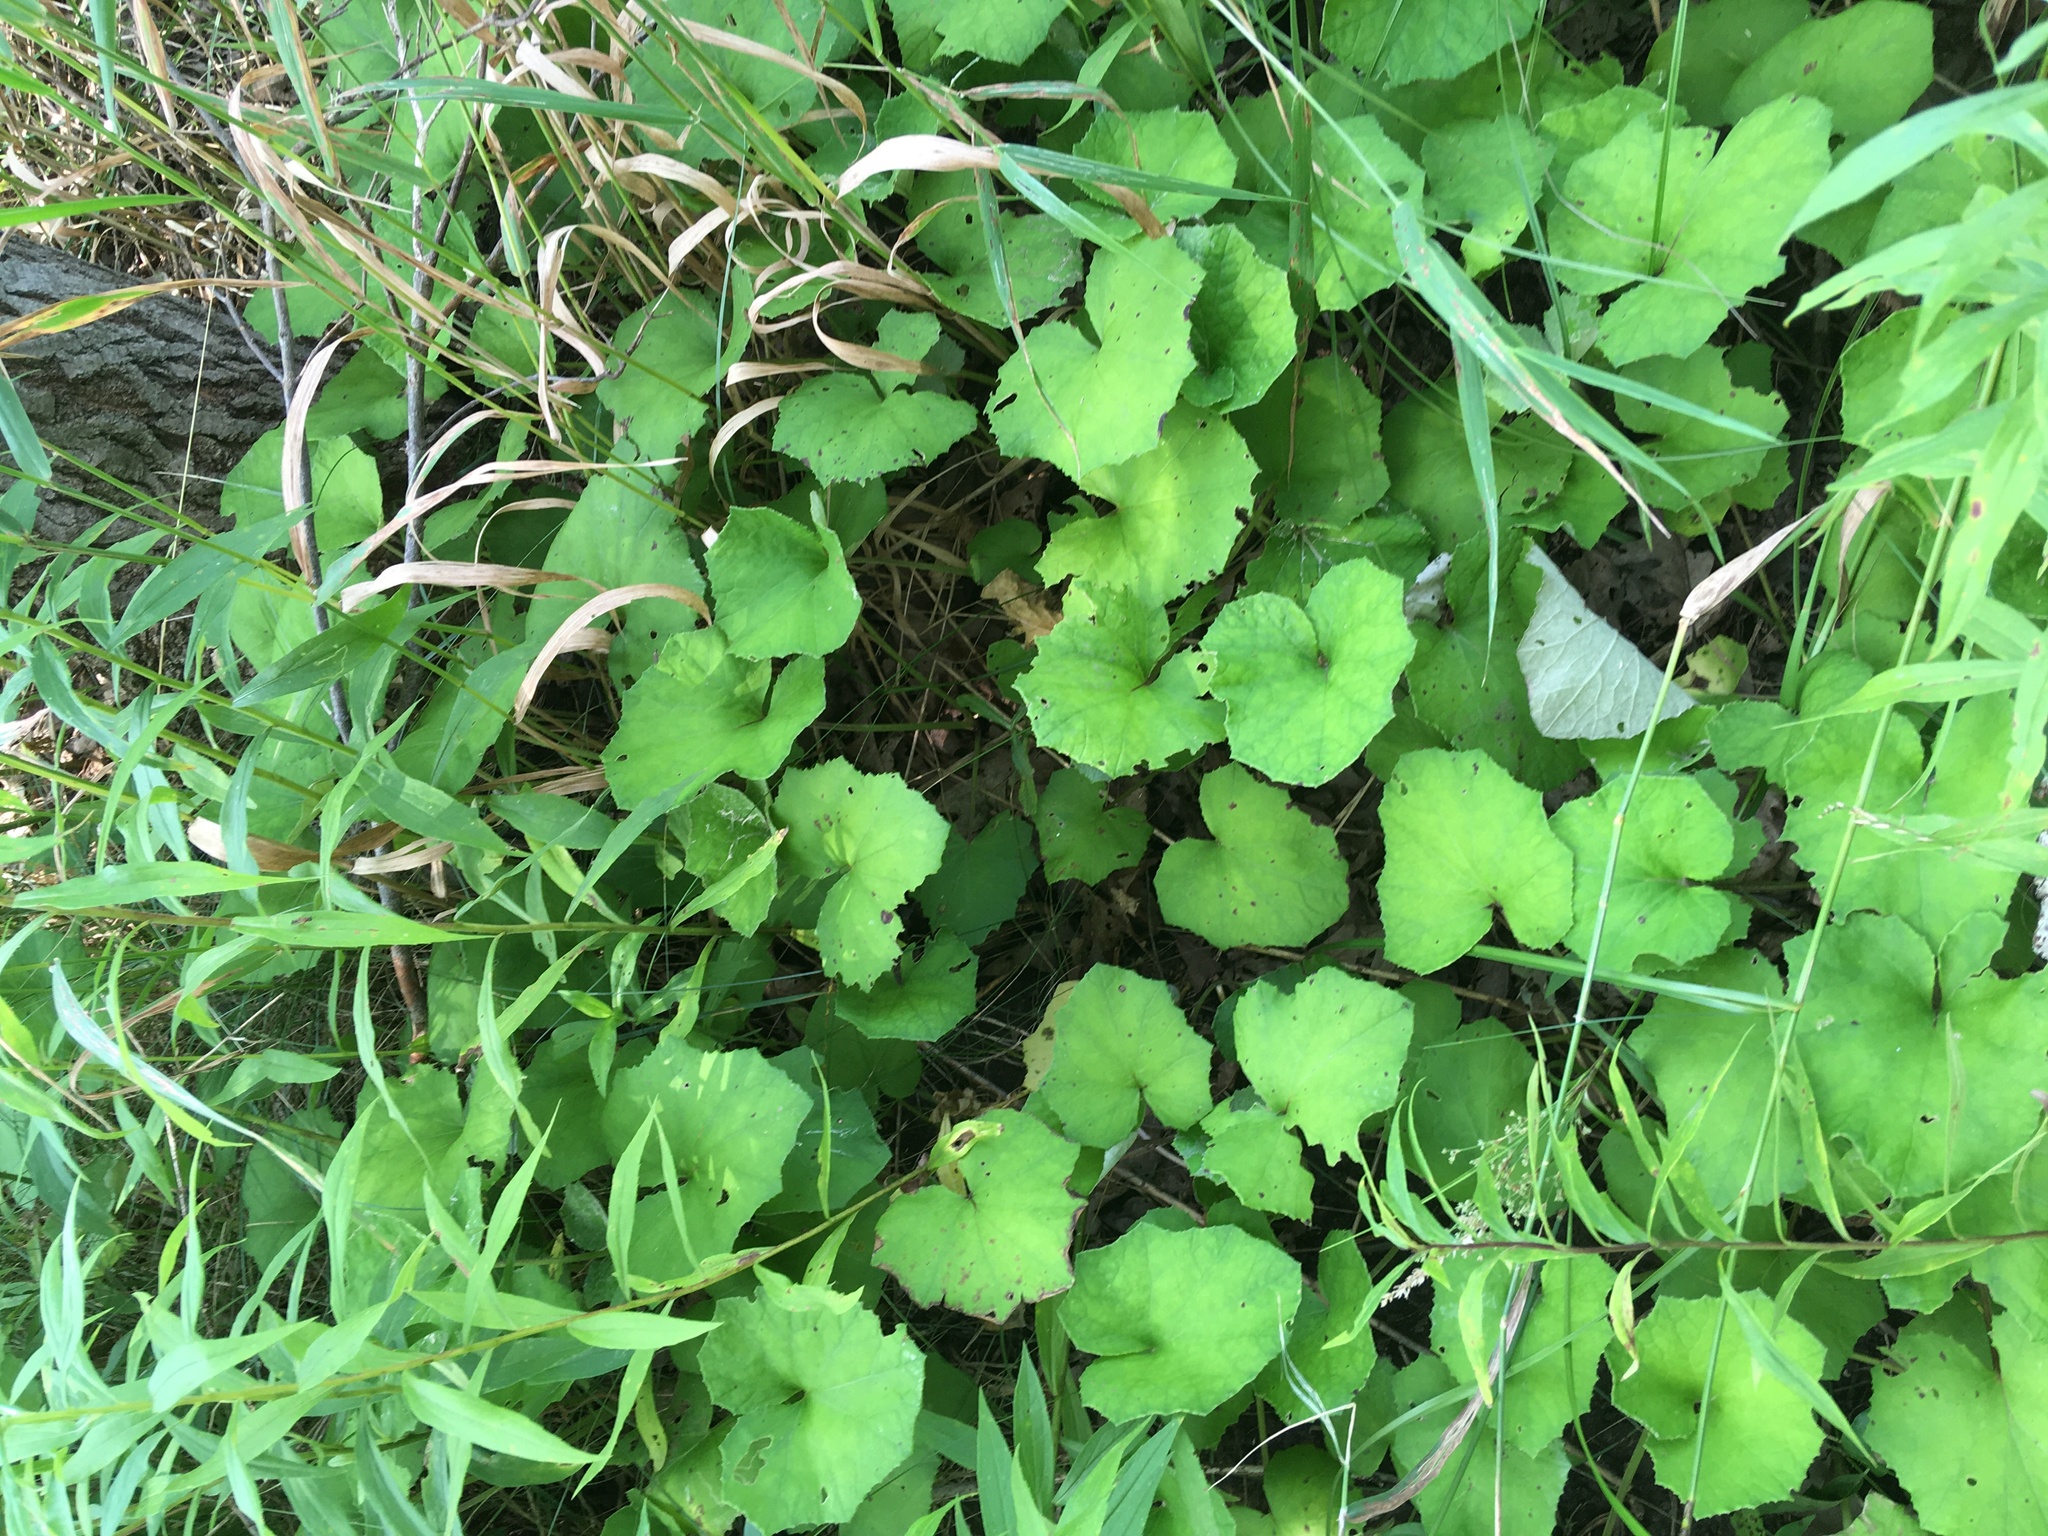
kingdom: Plantae
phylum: Tracheophyta
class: Magnoliopsida
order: Asterales
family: Asteraceae
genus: Tussilago
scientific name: Tussilago farfara
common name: Coltsfoot
